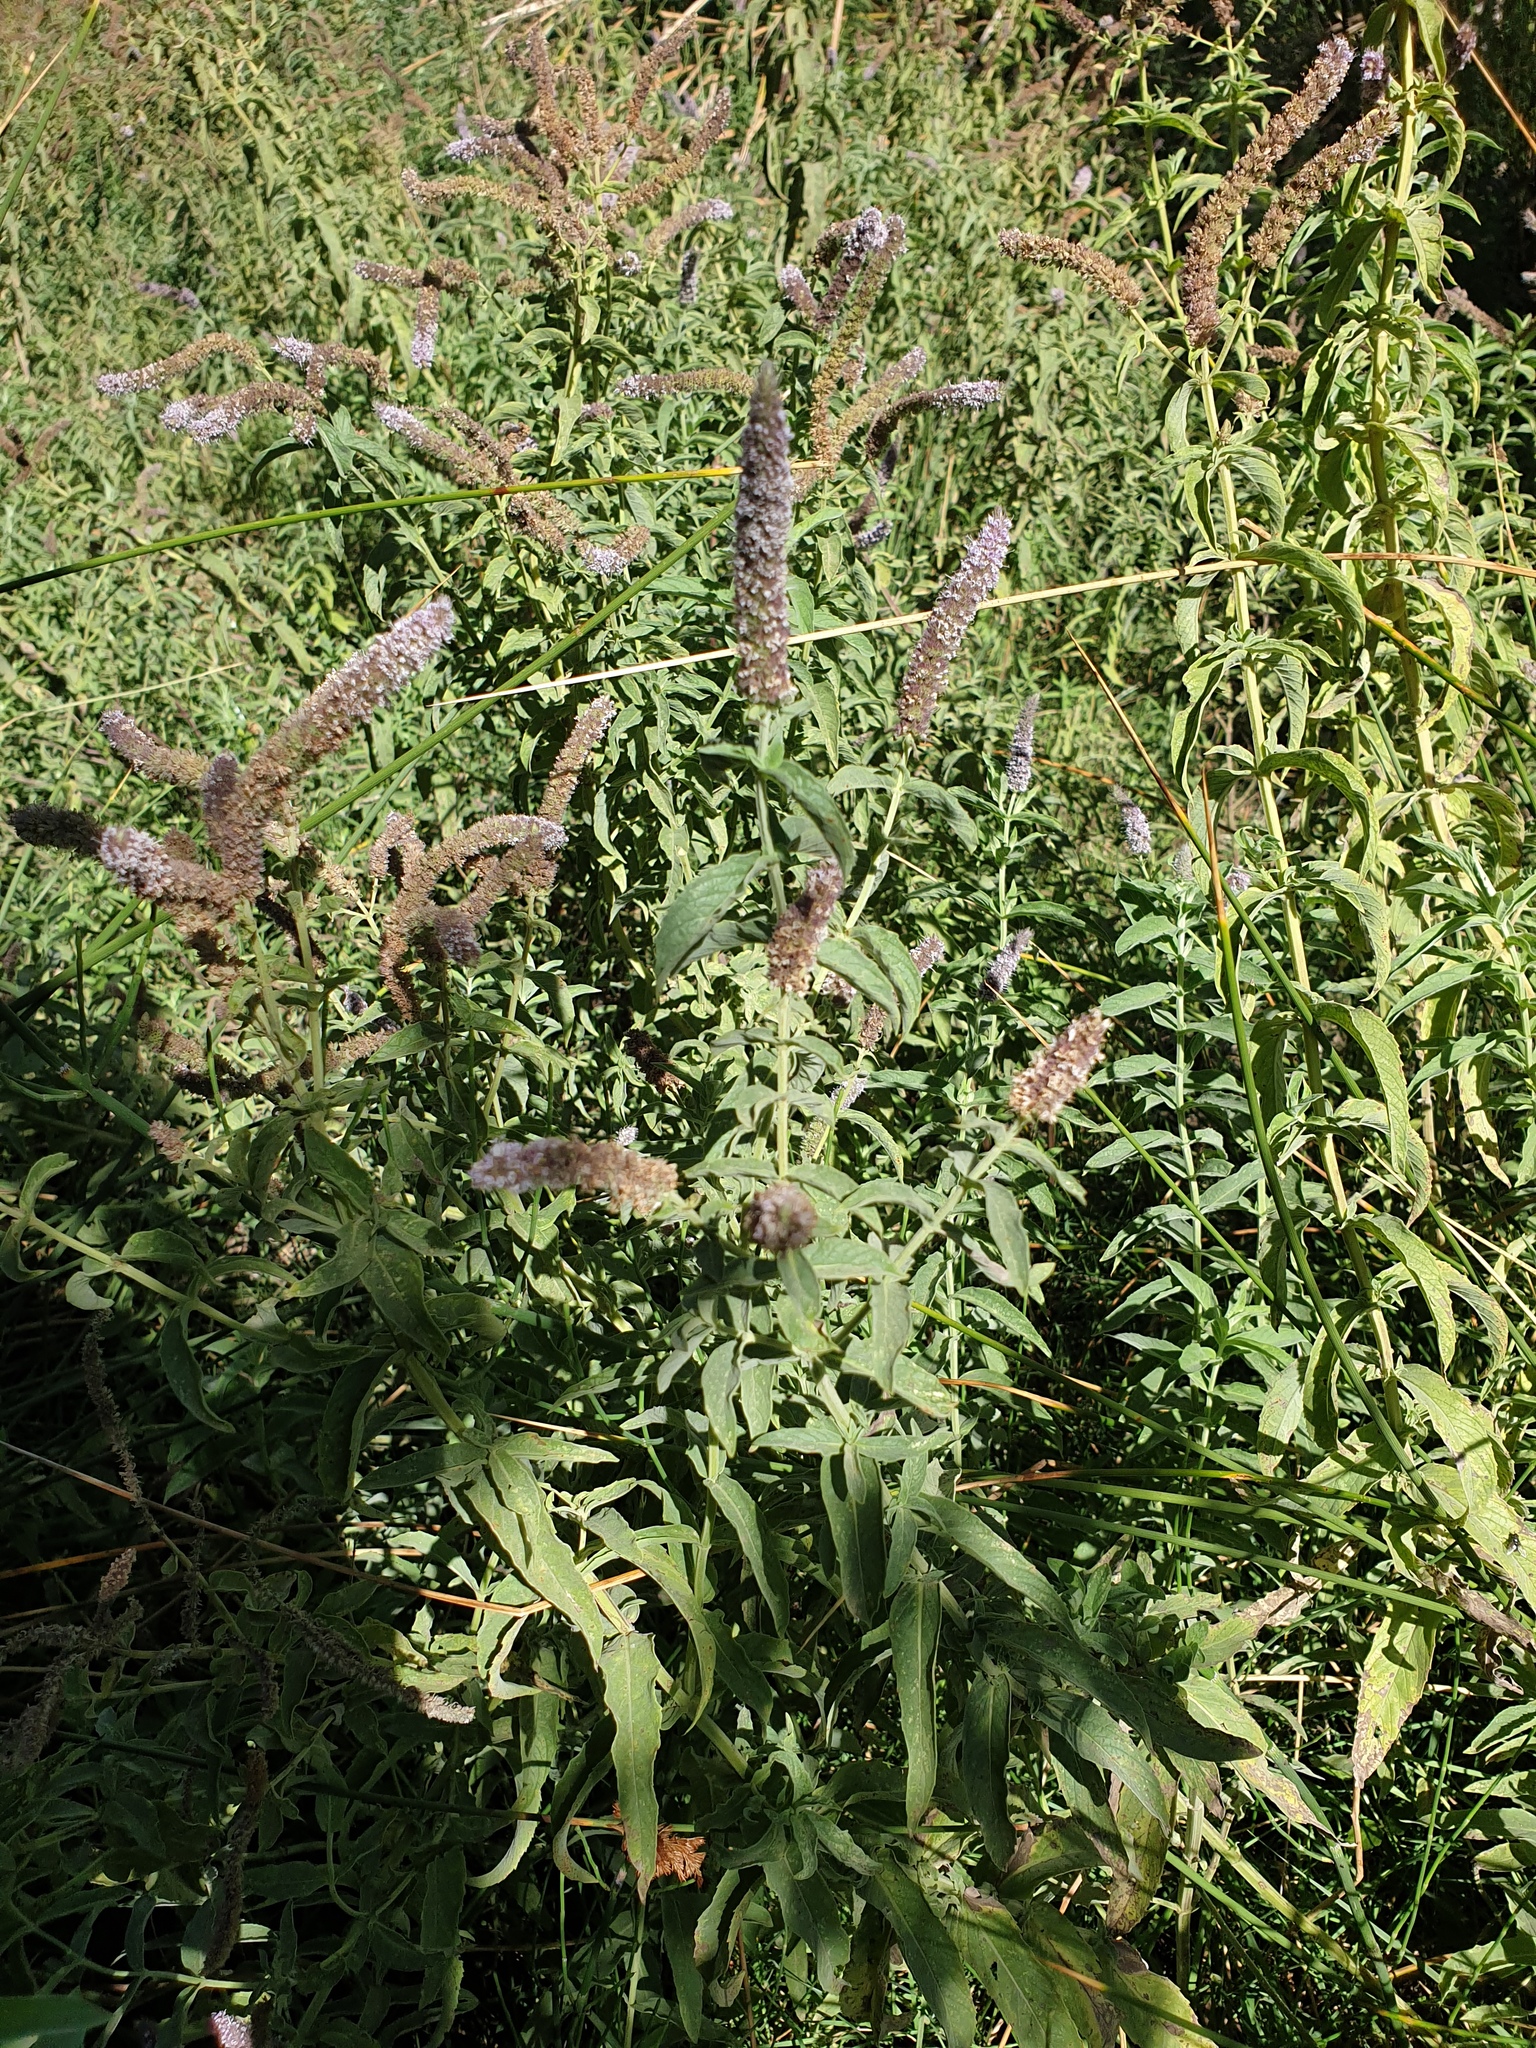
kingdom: Plantae
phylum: Tracheophyta
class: Magnoliopsida
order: Lamiales
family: Lamiaceae
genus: Mentha
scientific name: Mentha longifolia
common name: Horse mint
